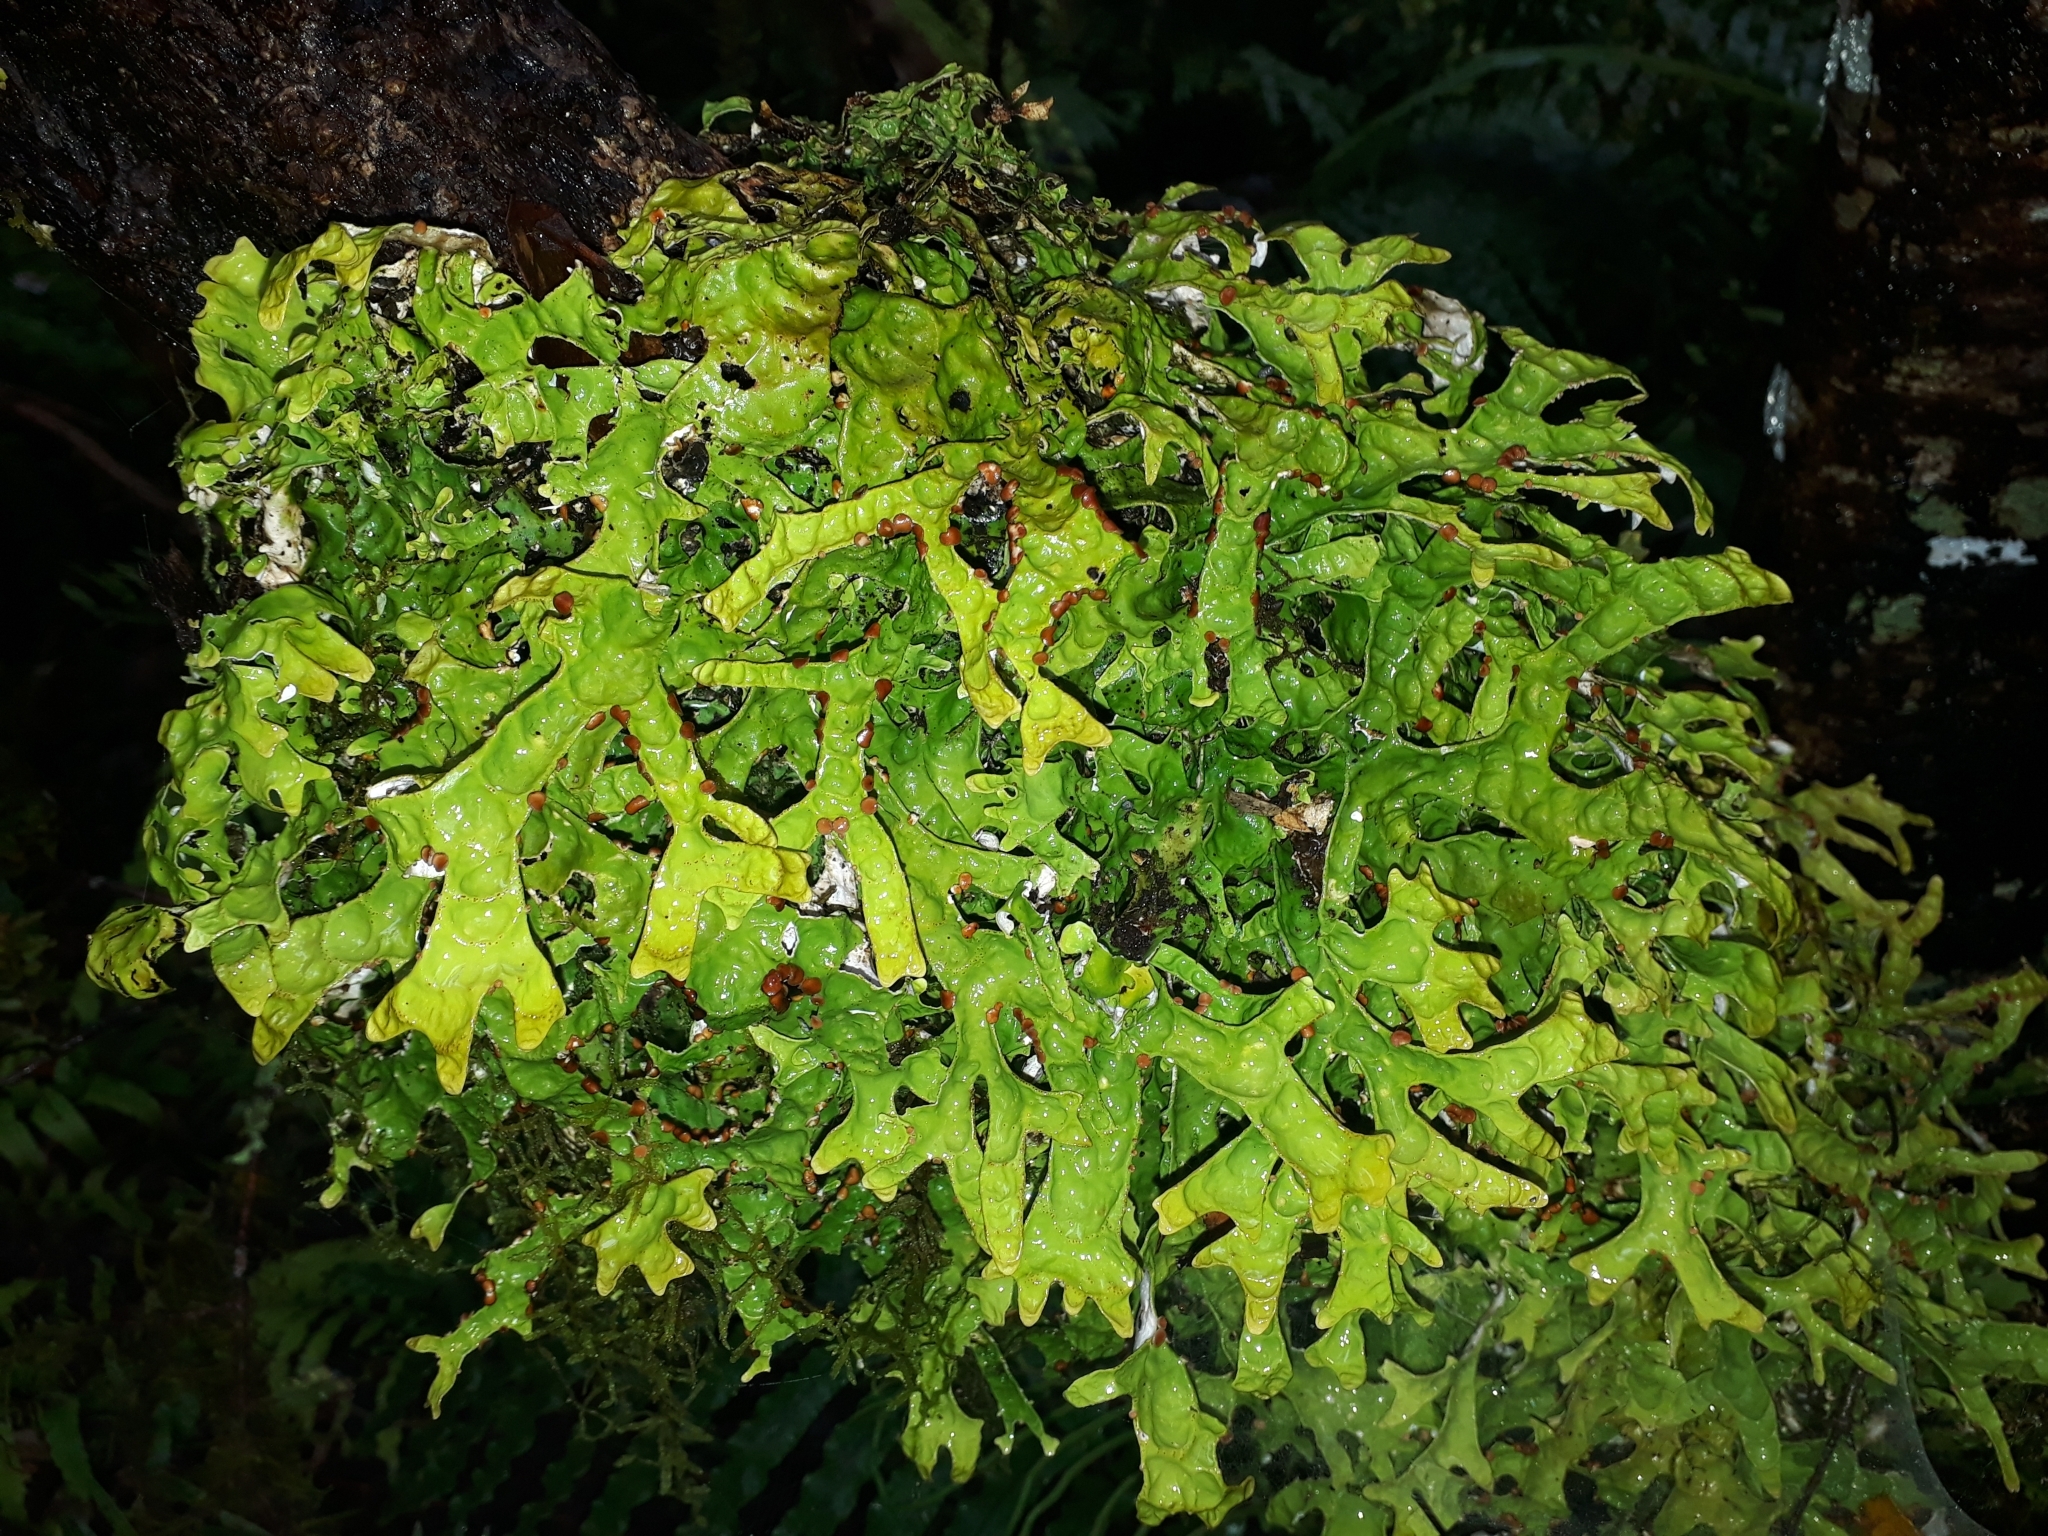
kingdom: Fungi
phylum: Ascomycota
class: Lecanoromycetes
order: Peltigerales
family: Lobariaceae
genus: Pseudocyphellaria
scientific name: Pseudocyphellaria rufovirescens
